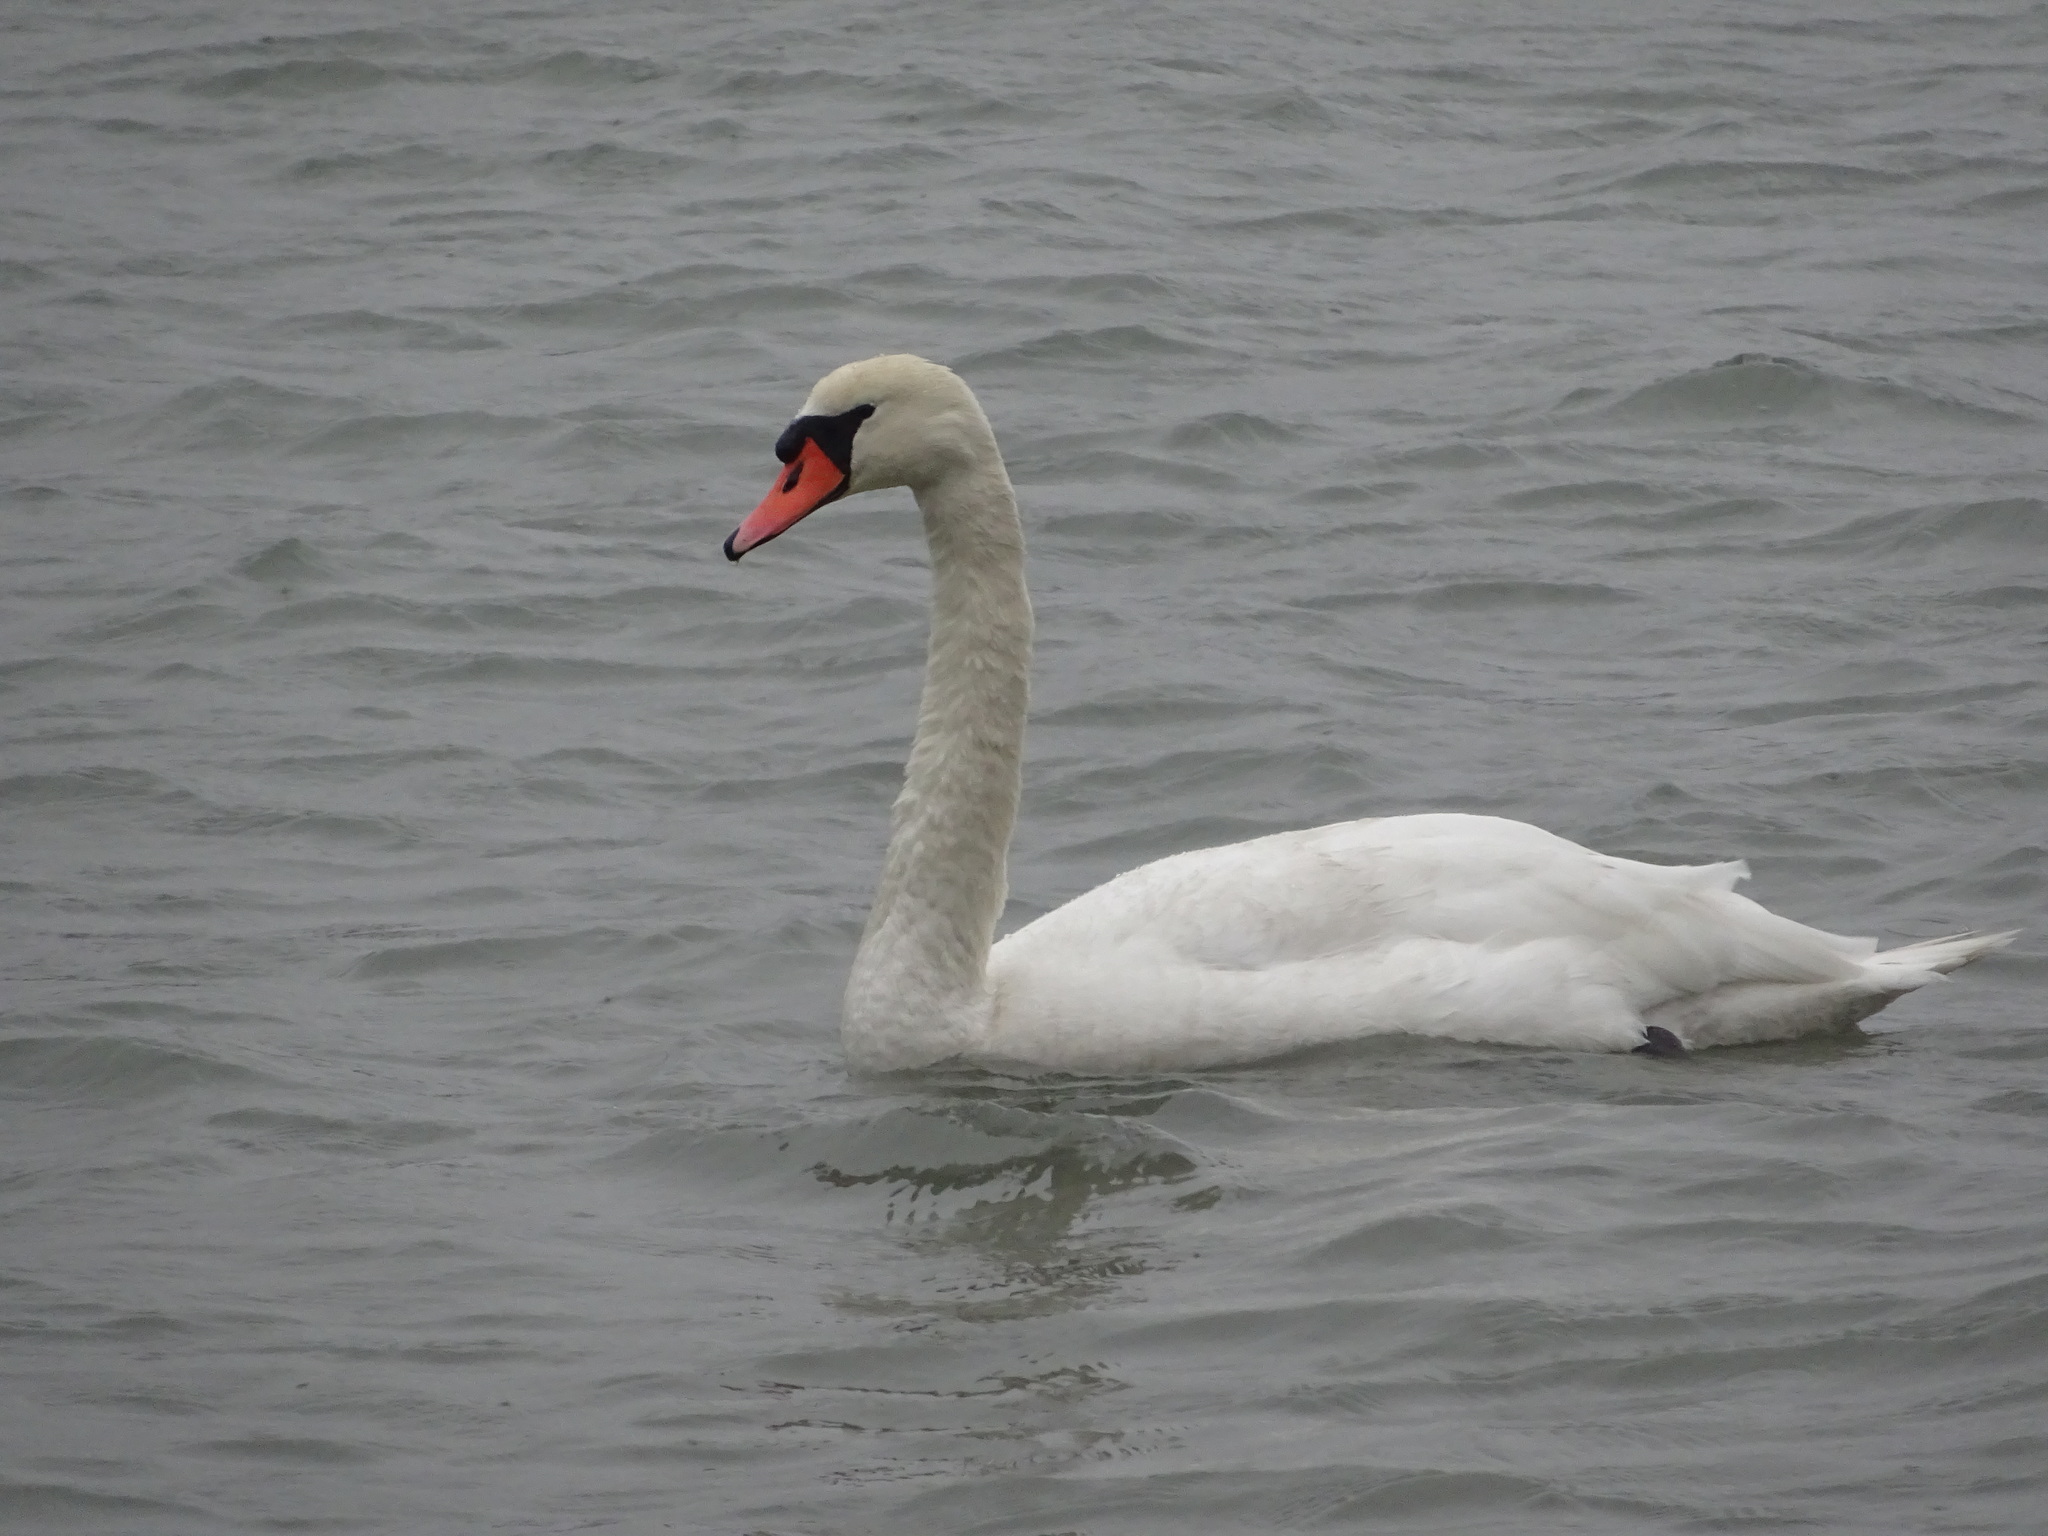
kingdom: Animalia
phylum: Chordata
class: Aves
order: Anseriformes
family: Anatidae
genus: Cygnus
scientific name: Cygnus olor
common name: Mute swan
